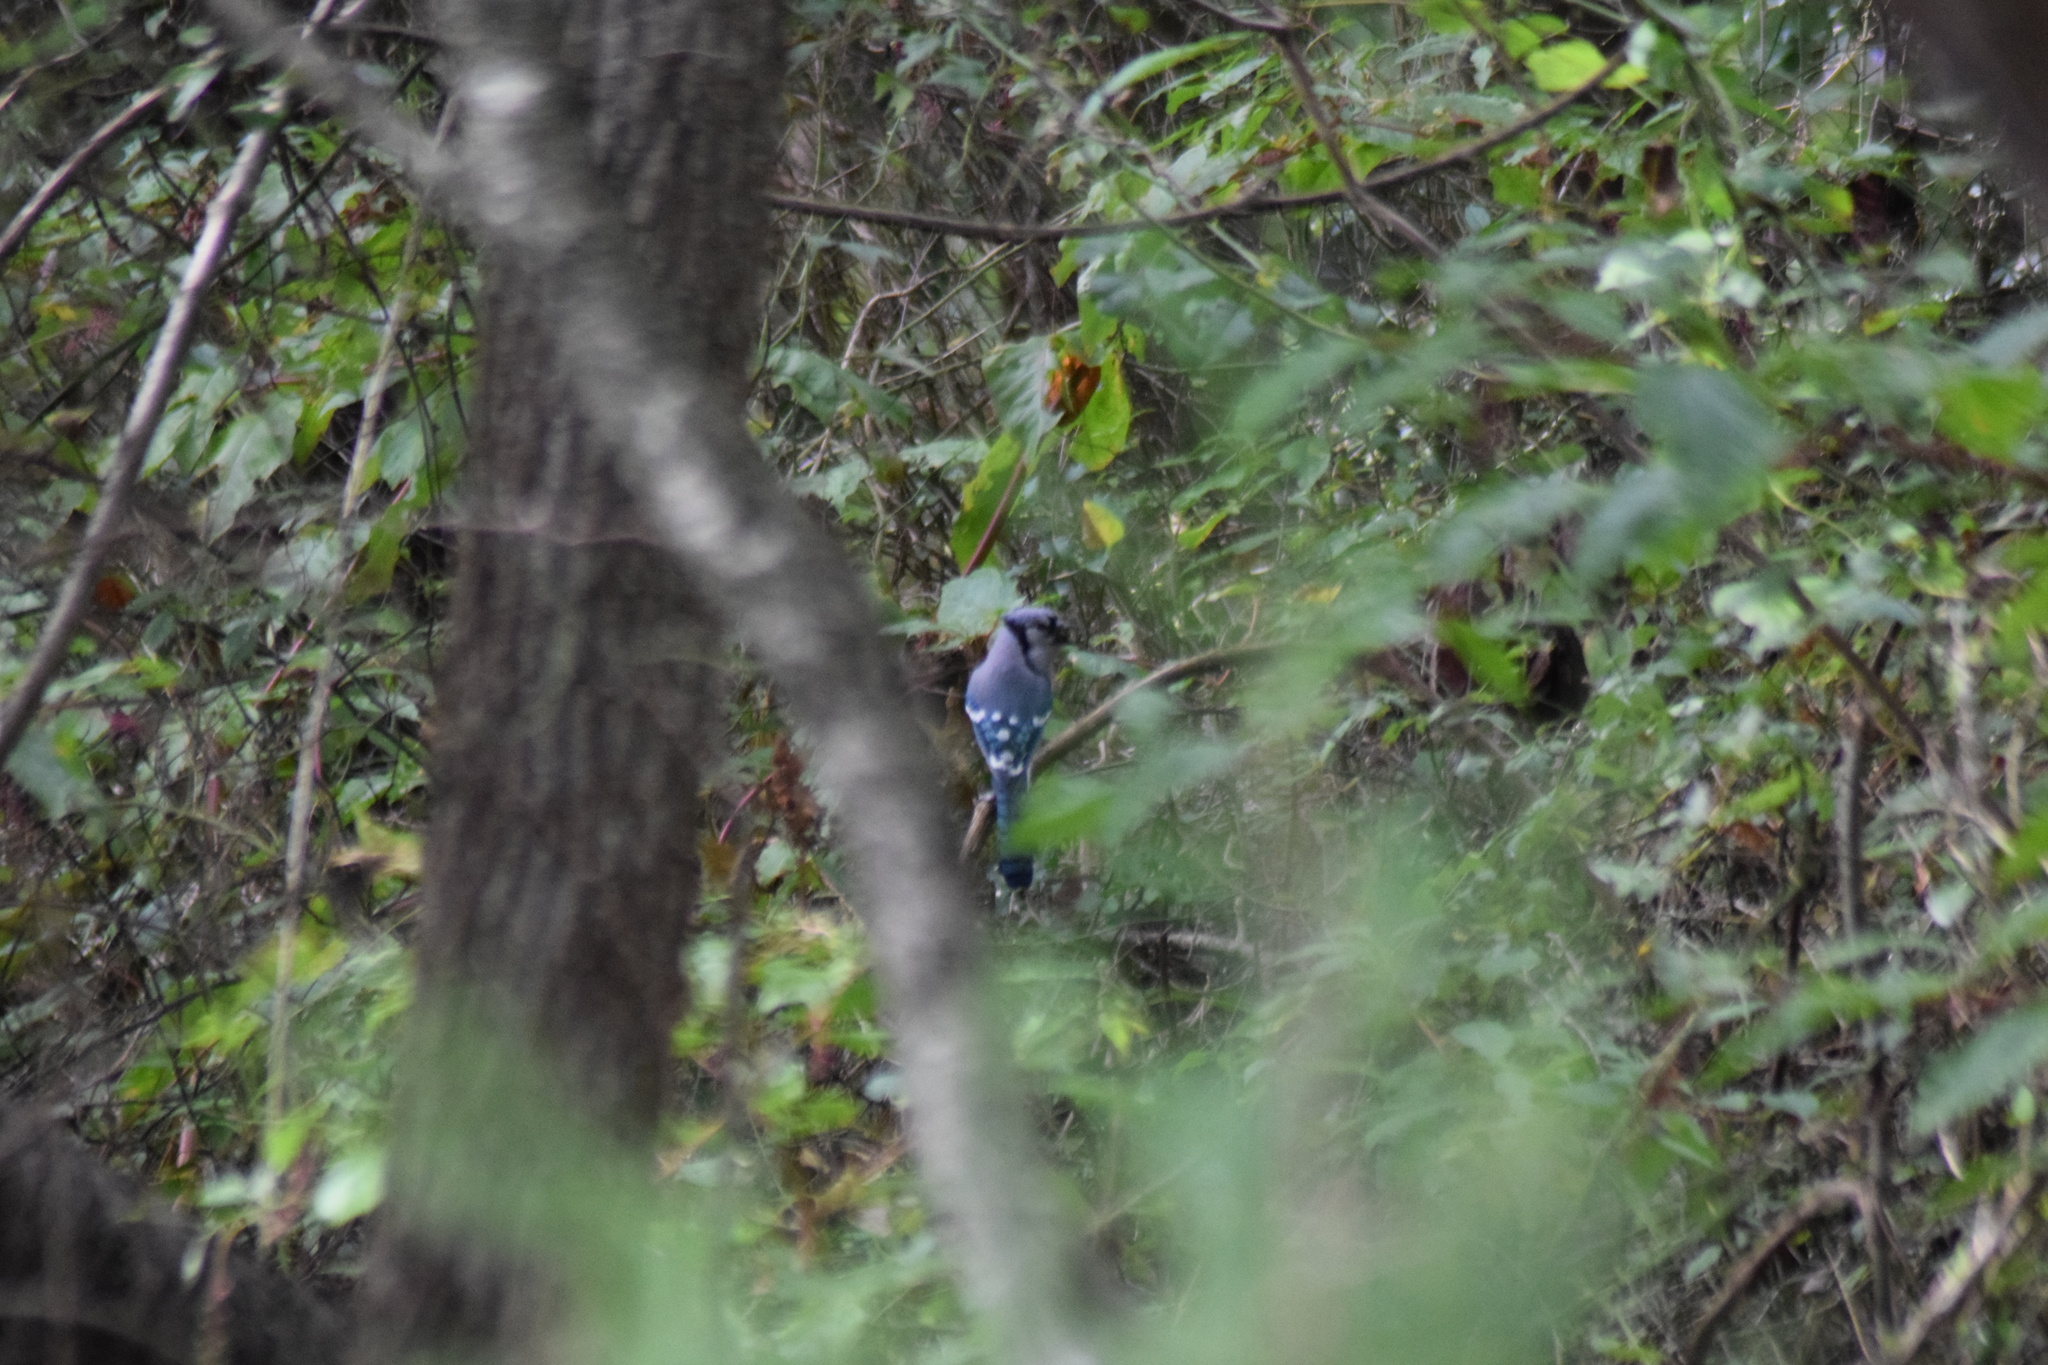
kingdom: Animalia
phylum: Chordata
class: Aves
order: Passeriformes
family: Corvidae
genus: Cyanocitta
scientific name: Cyanocitta cristata
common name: Blue jay
